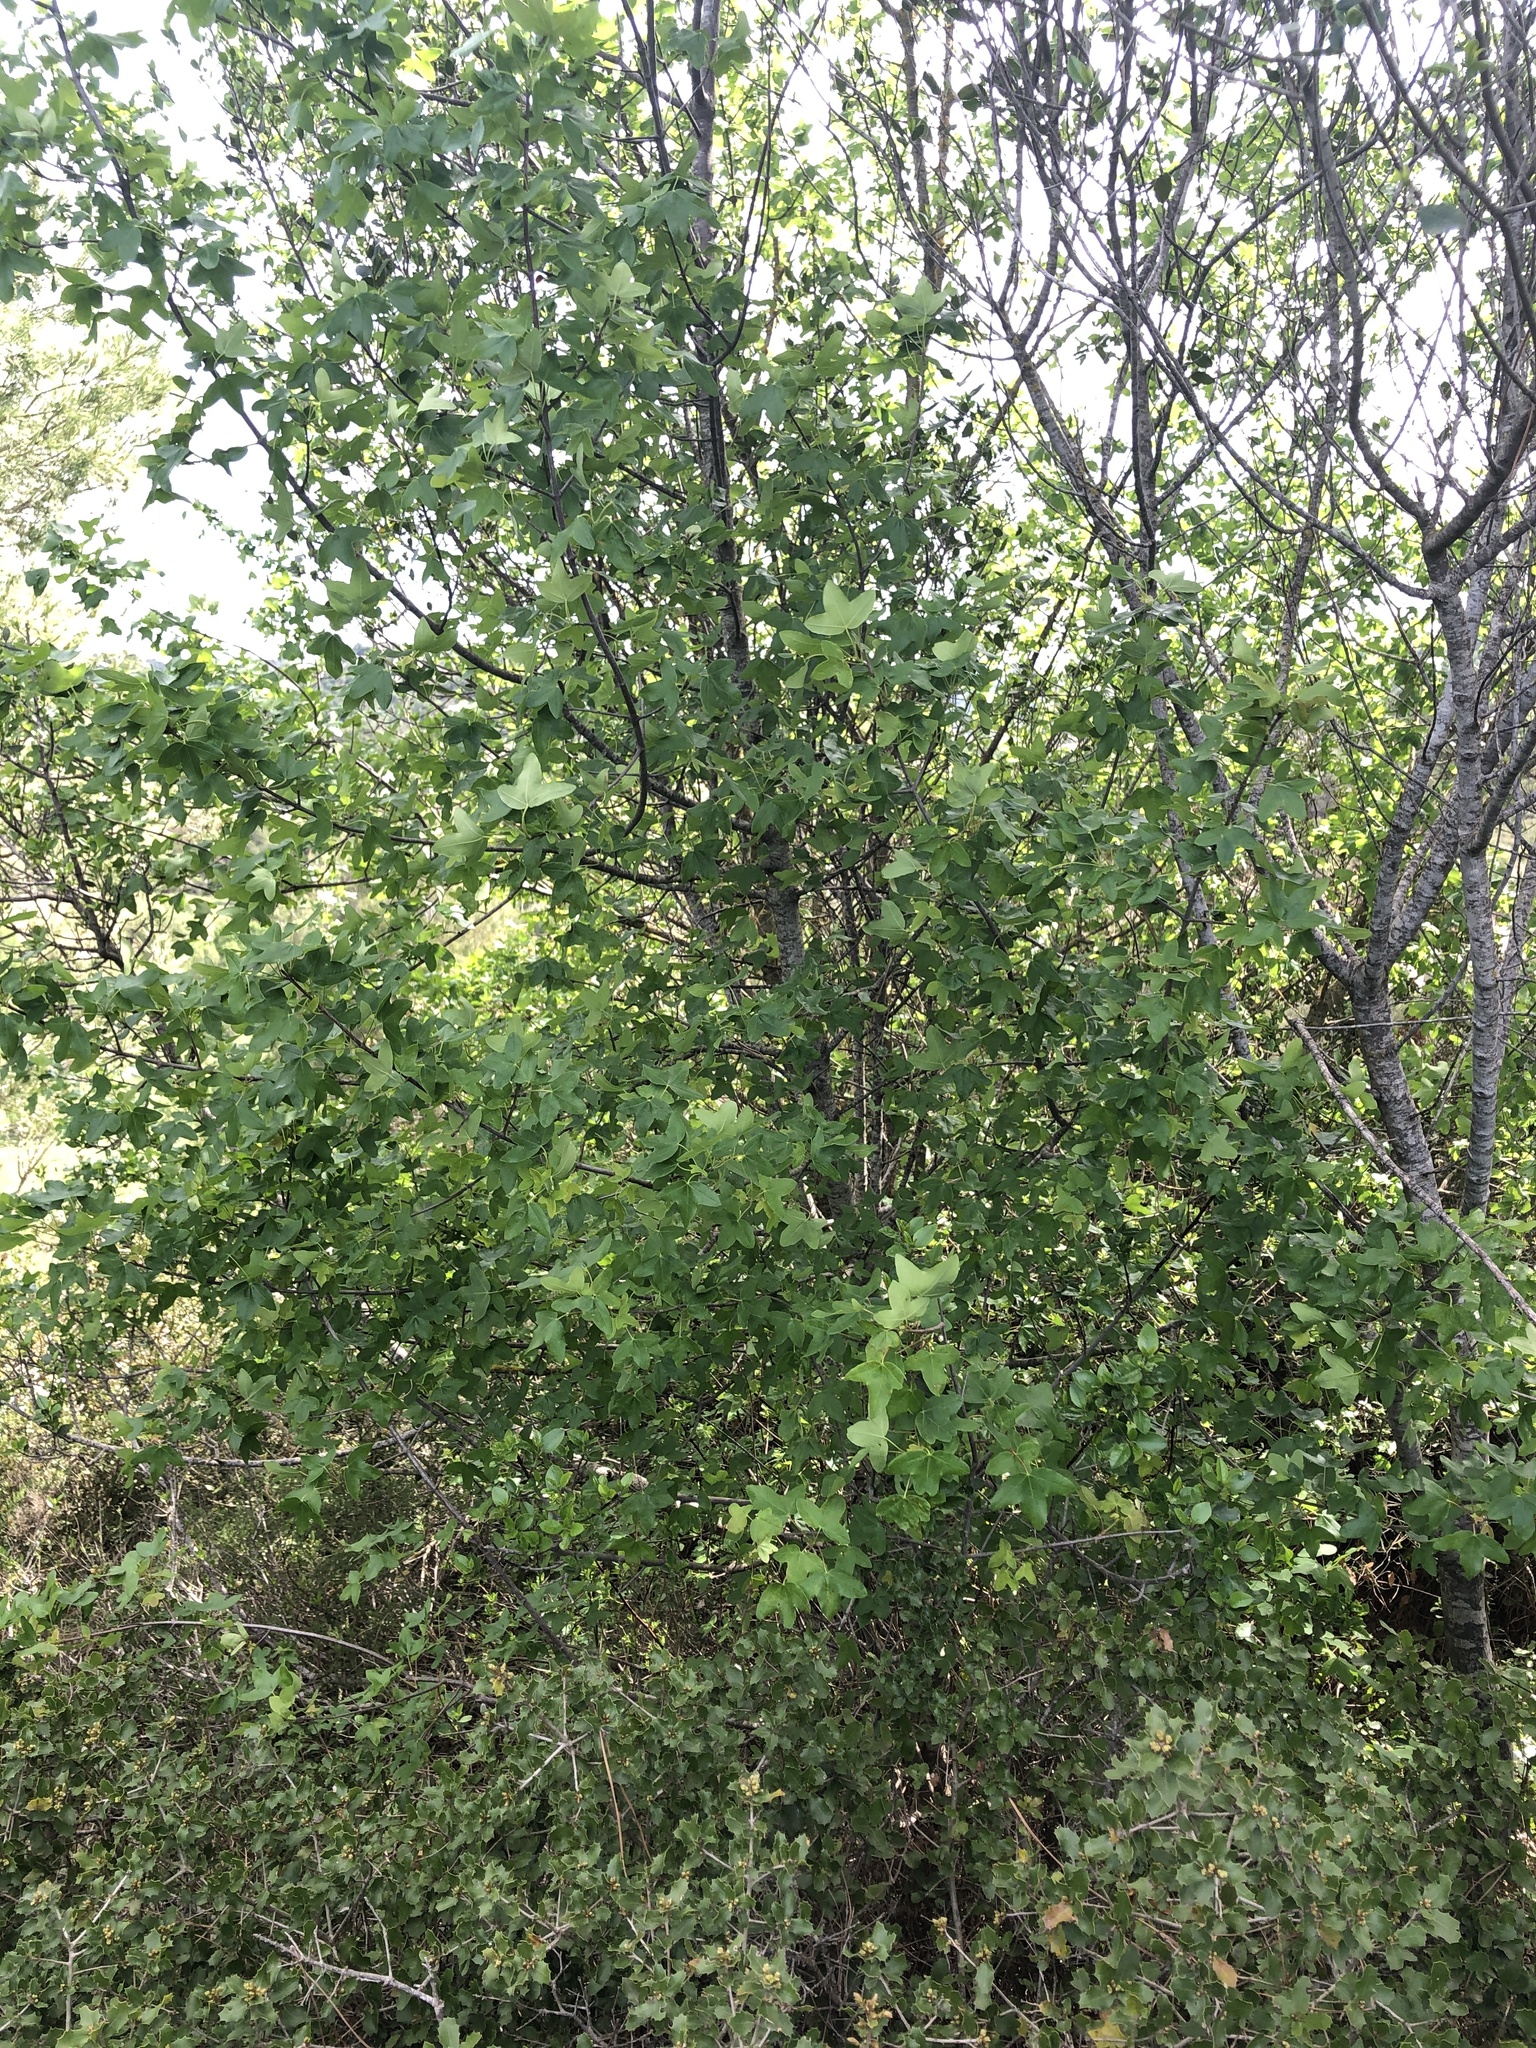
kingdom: Plantae
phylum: Tracheophyta
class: Magnoliopsida
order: Sapindales
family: Sapindaceae
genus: Acer
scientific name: Acer monspessulanum
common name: Montpellier maple
